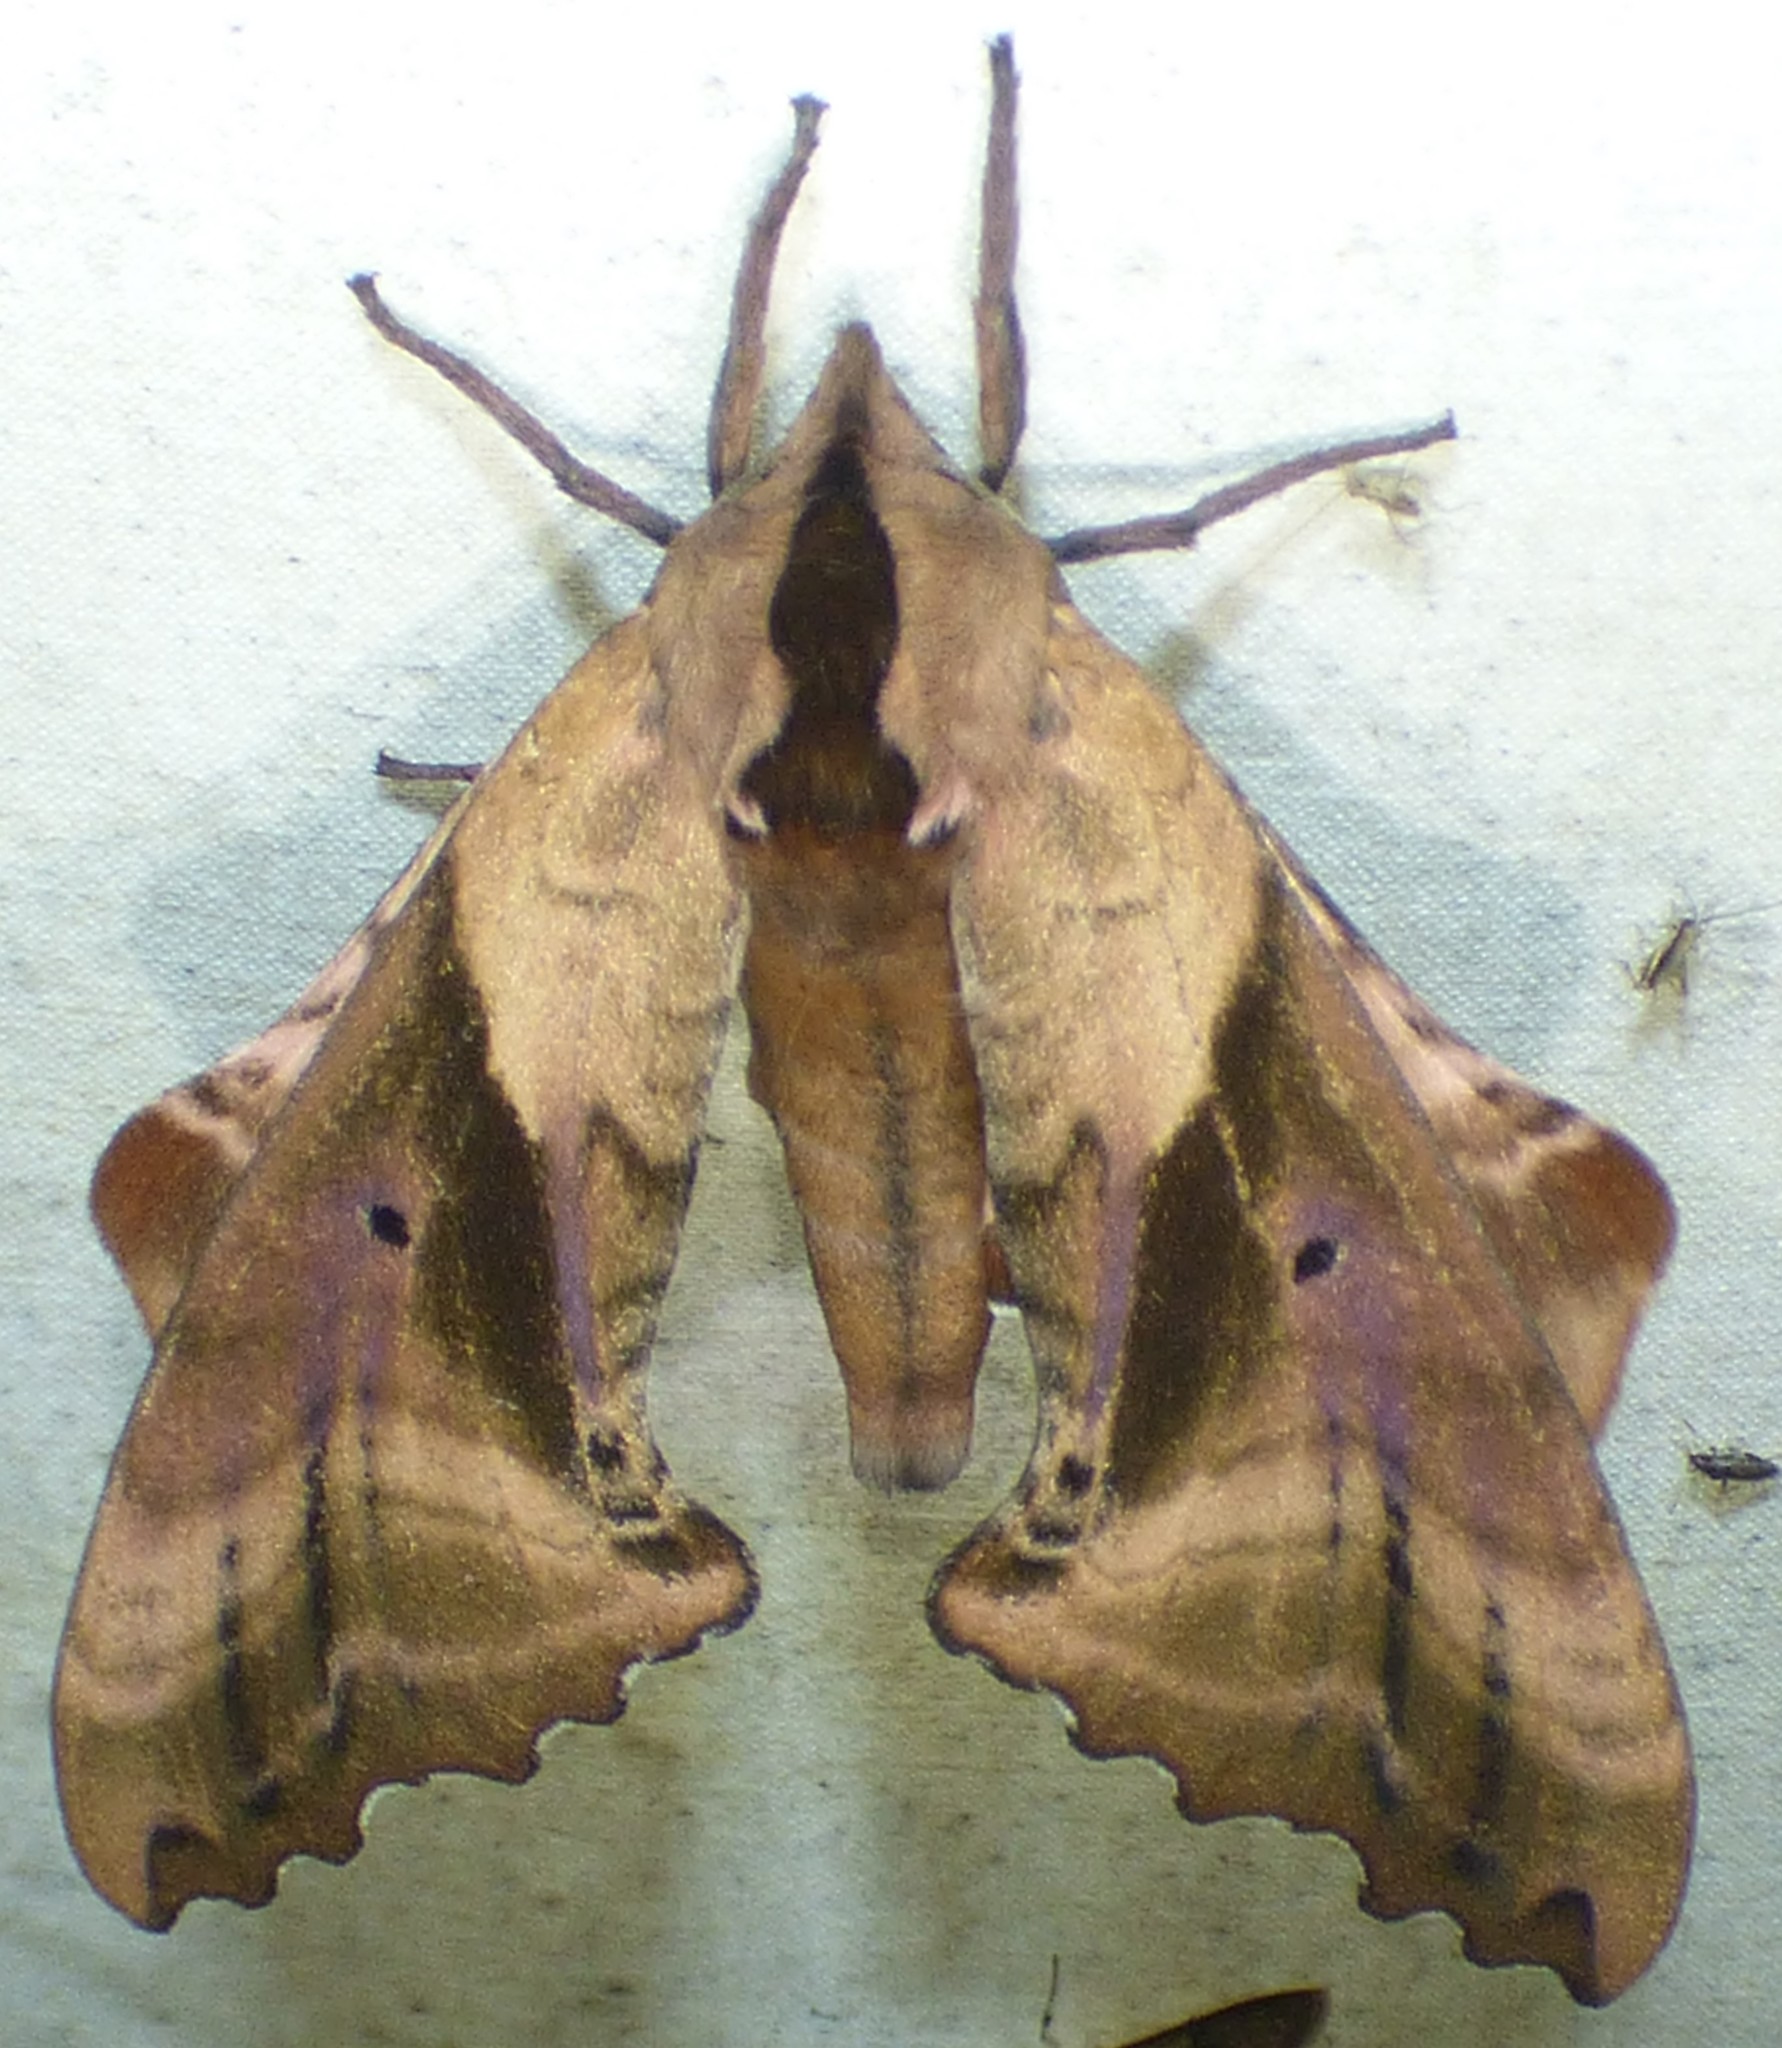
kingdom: Animalia
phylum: Arthropoda
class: Insecta
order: Lepidoptera
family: Sphingidae
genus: Paonias
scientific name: Paonias excaecata
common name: Blind-eyed sphinx
